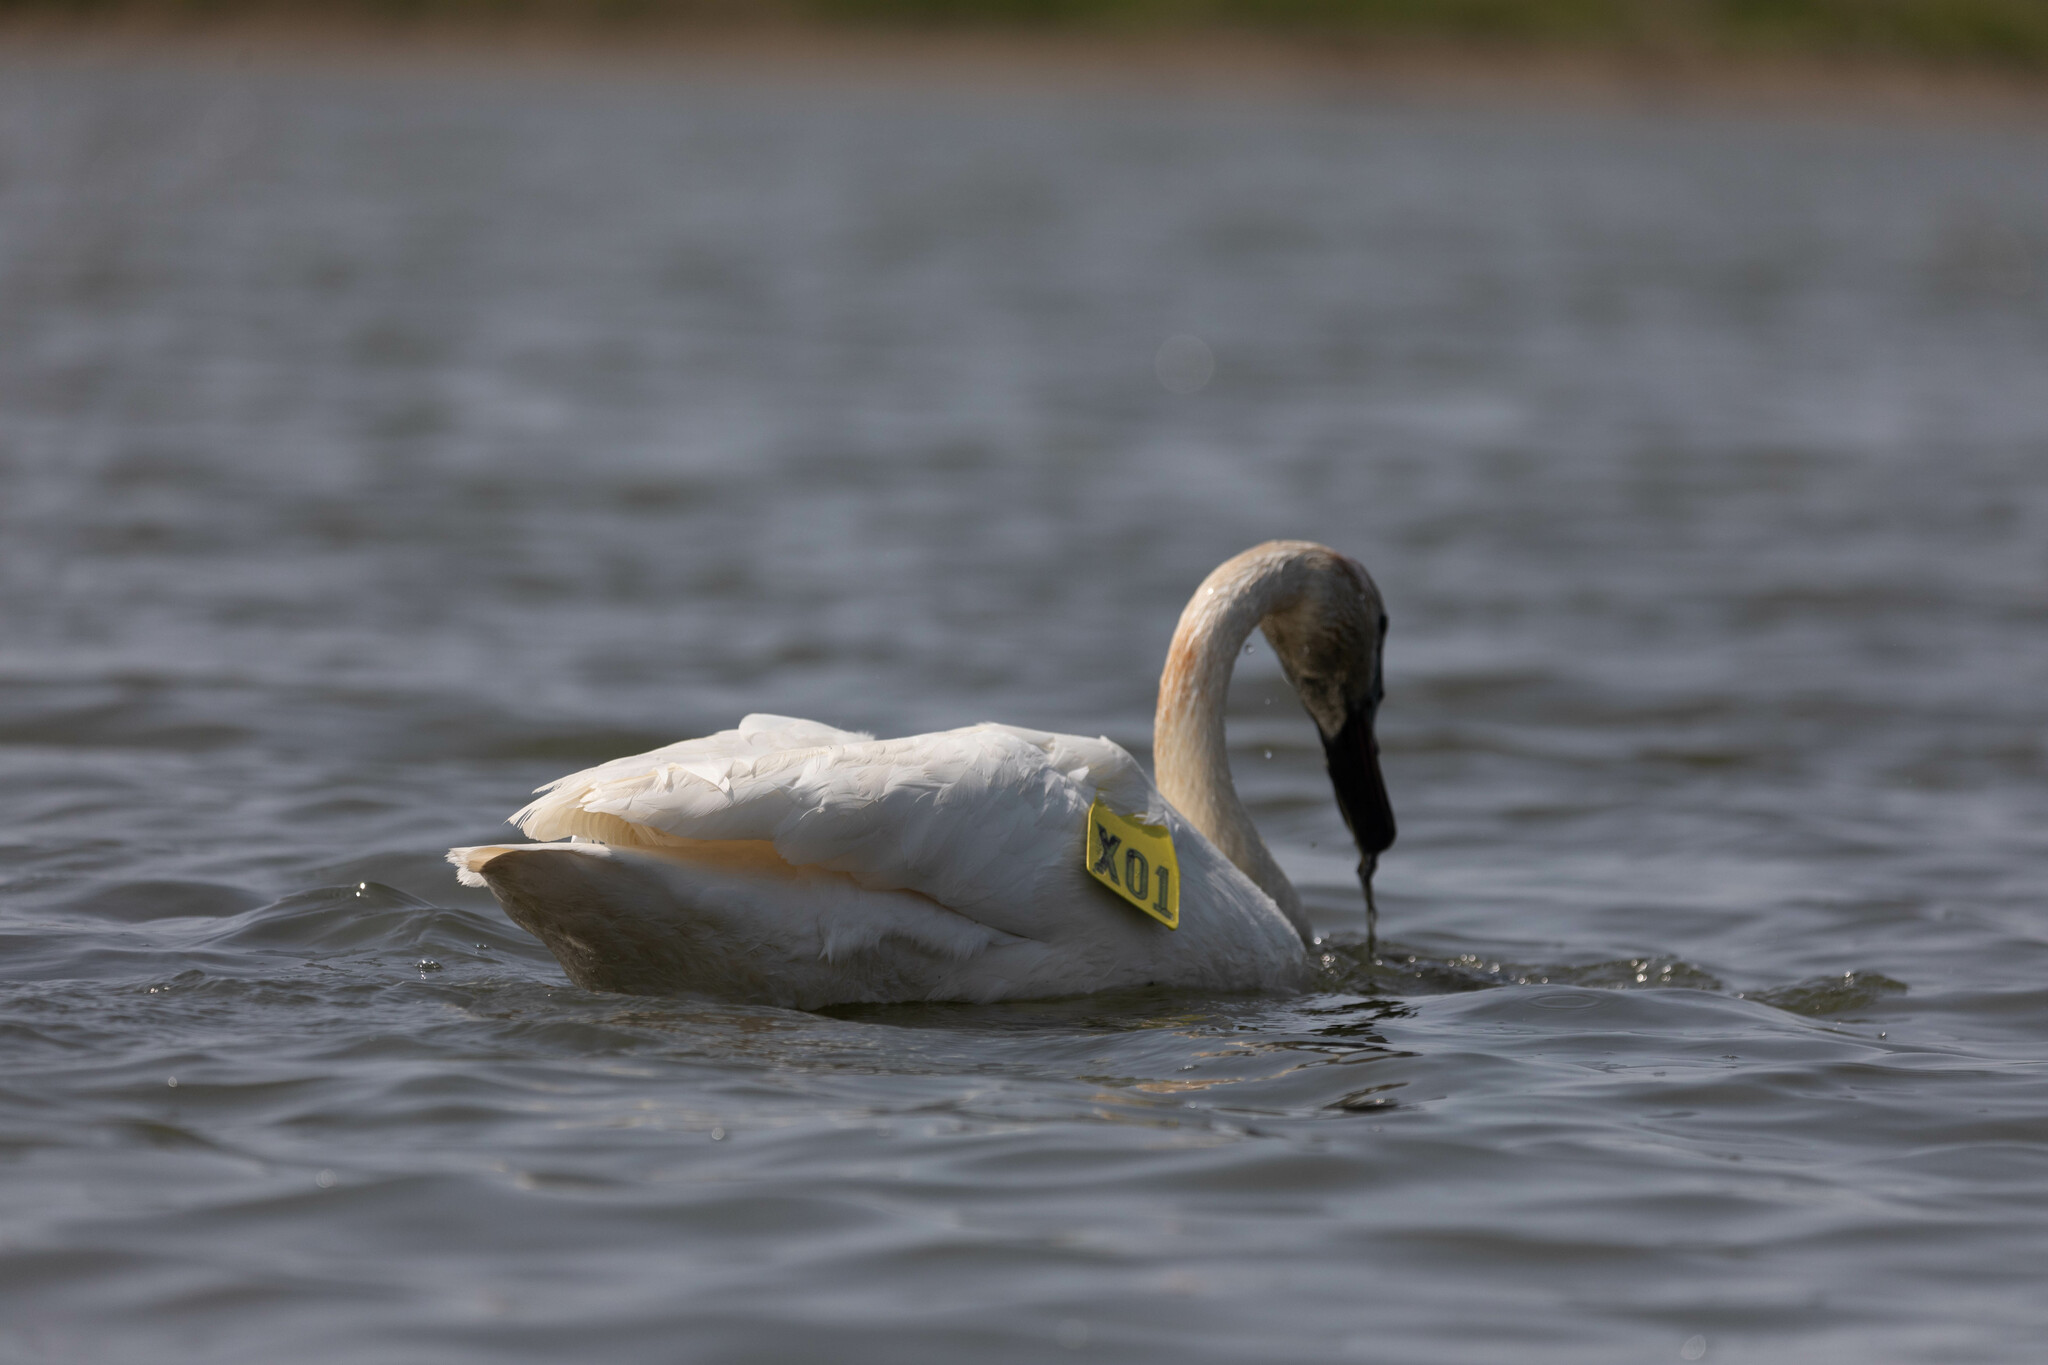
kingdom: Animalia
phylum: Chordata
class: Aves
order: Anseriformes
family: Anatidae
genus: Cygnus
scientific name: Cygnus buccinator
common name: Trumpeter swan
